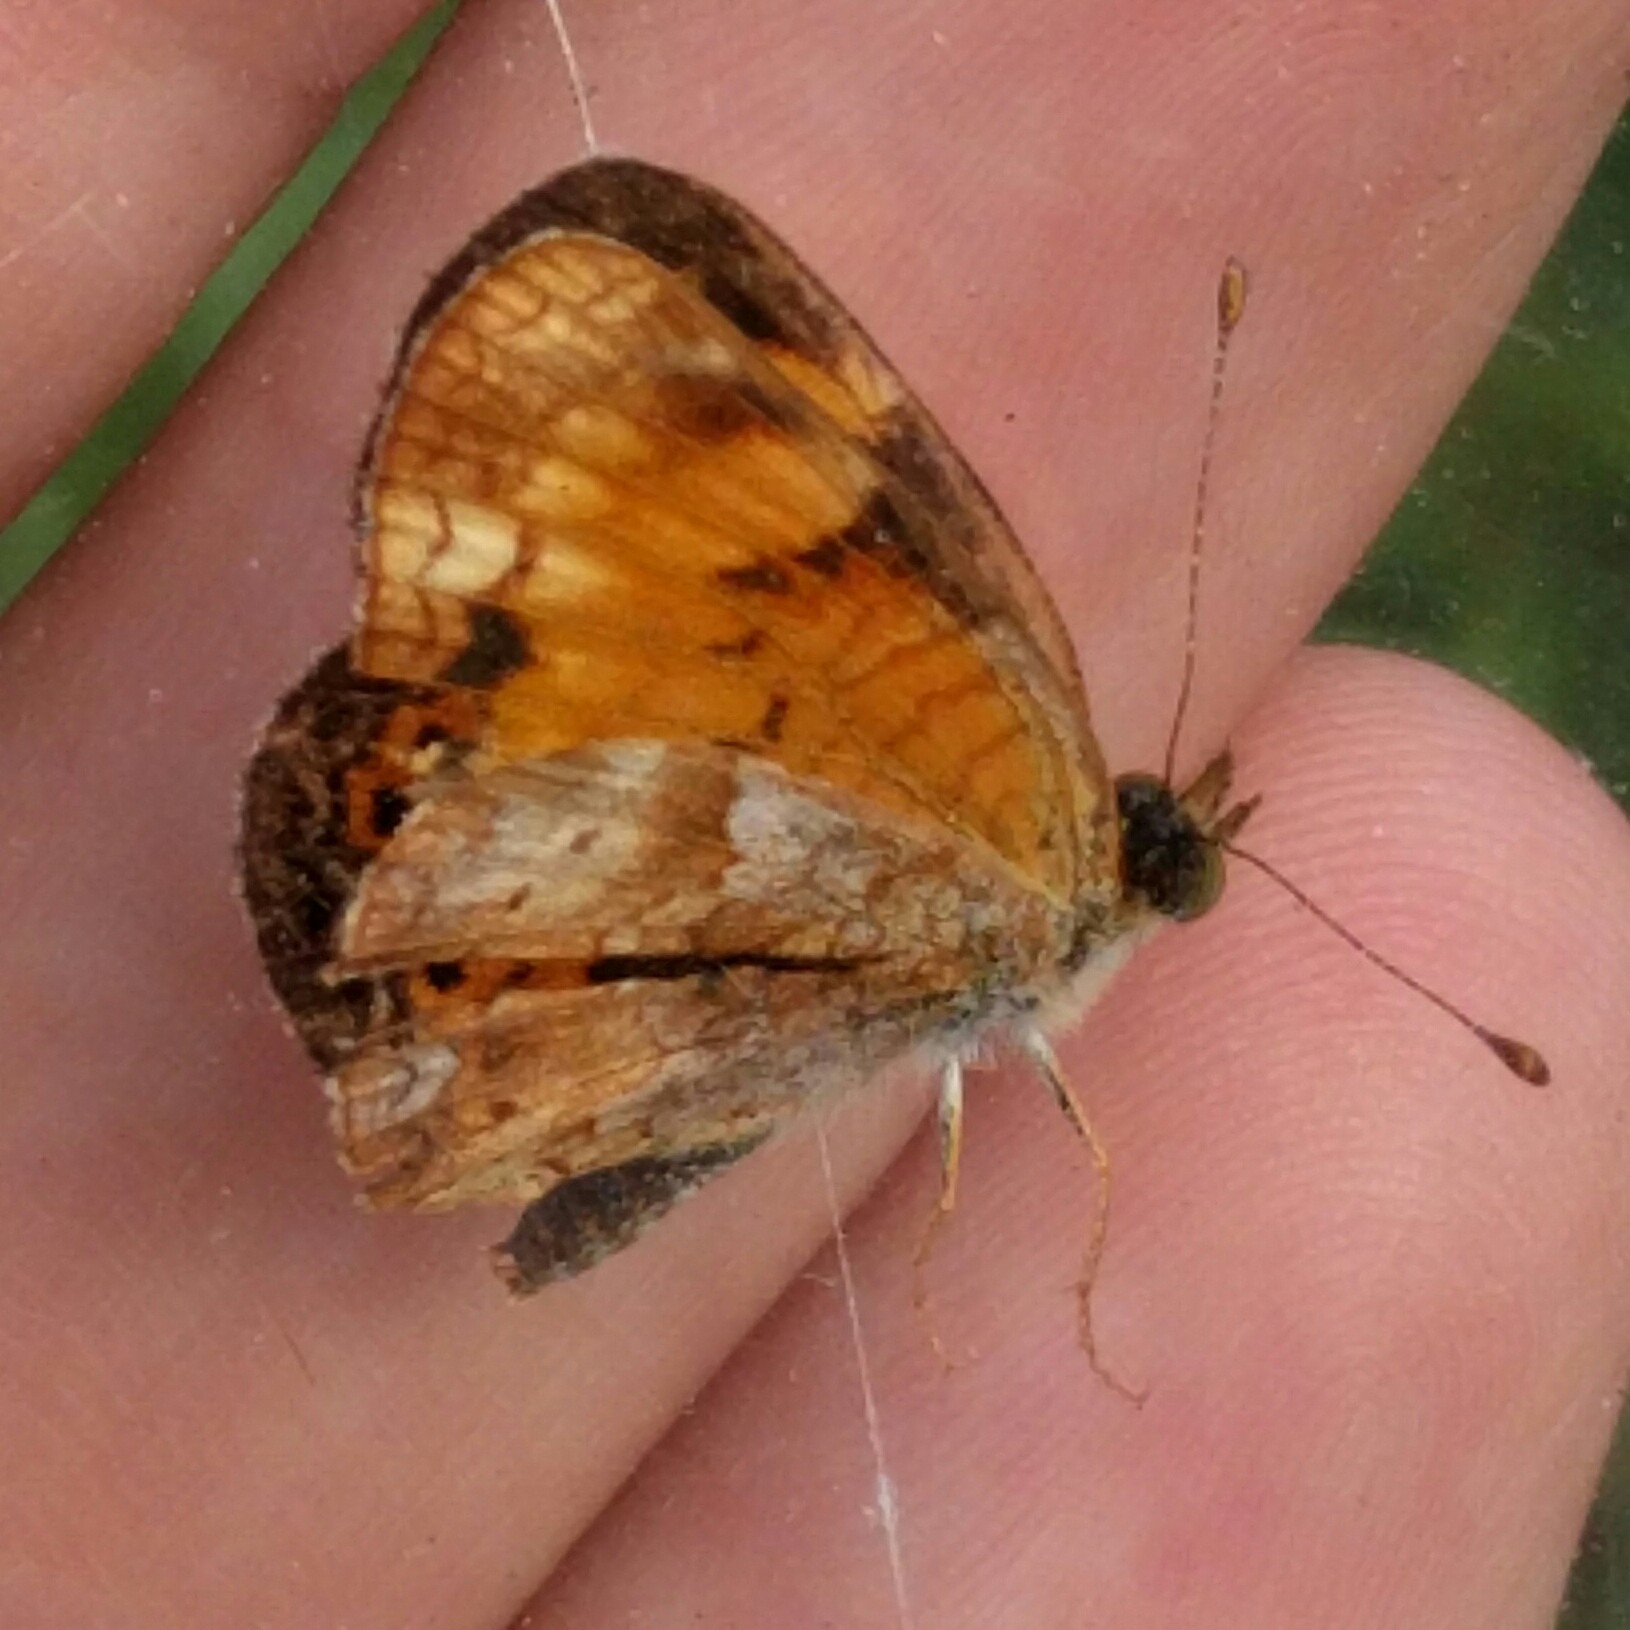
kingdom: Animalia
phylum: Arthropoda
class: Insecta
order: Lepidoptera
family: Nymphalidae
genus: Phyciodes
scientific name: Phyciodes tharos
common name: Pearl crescent
